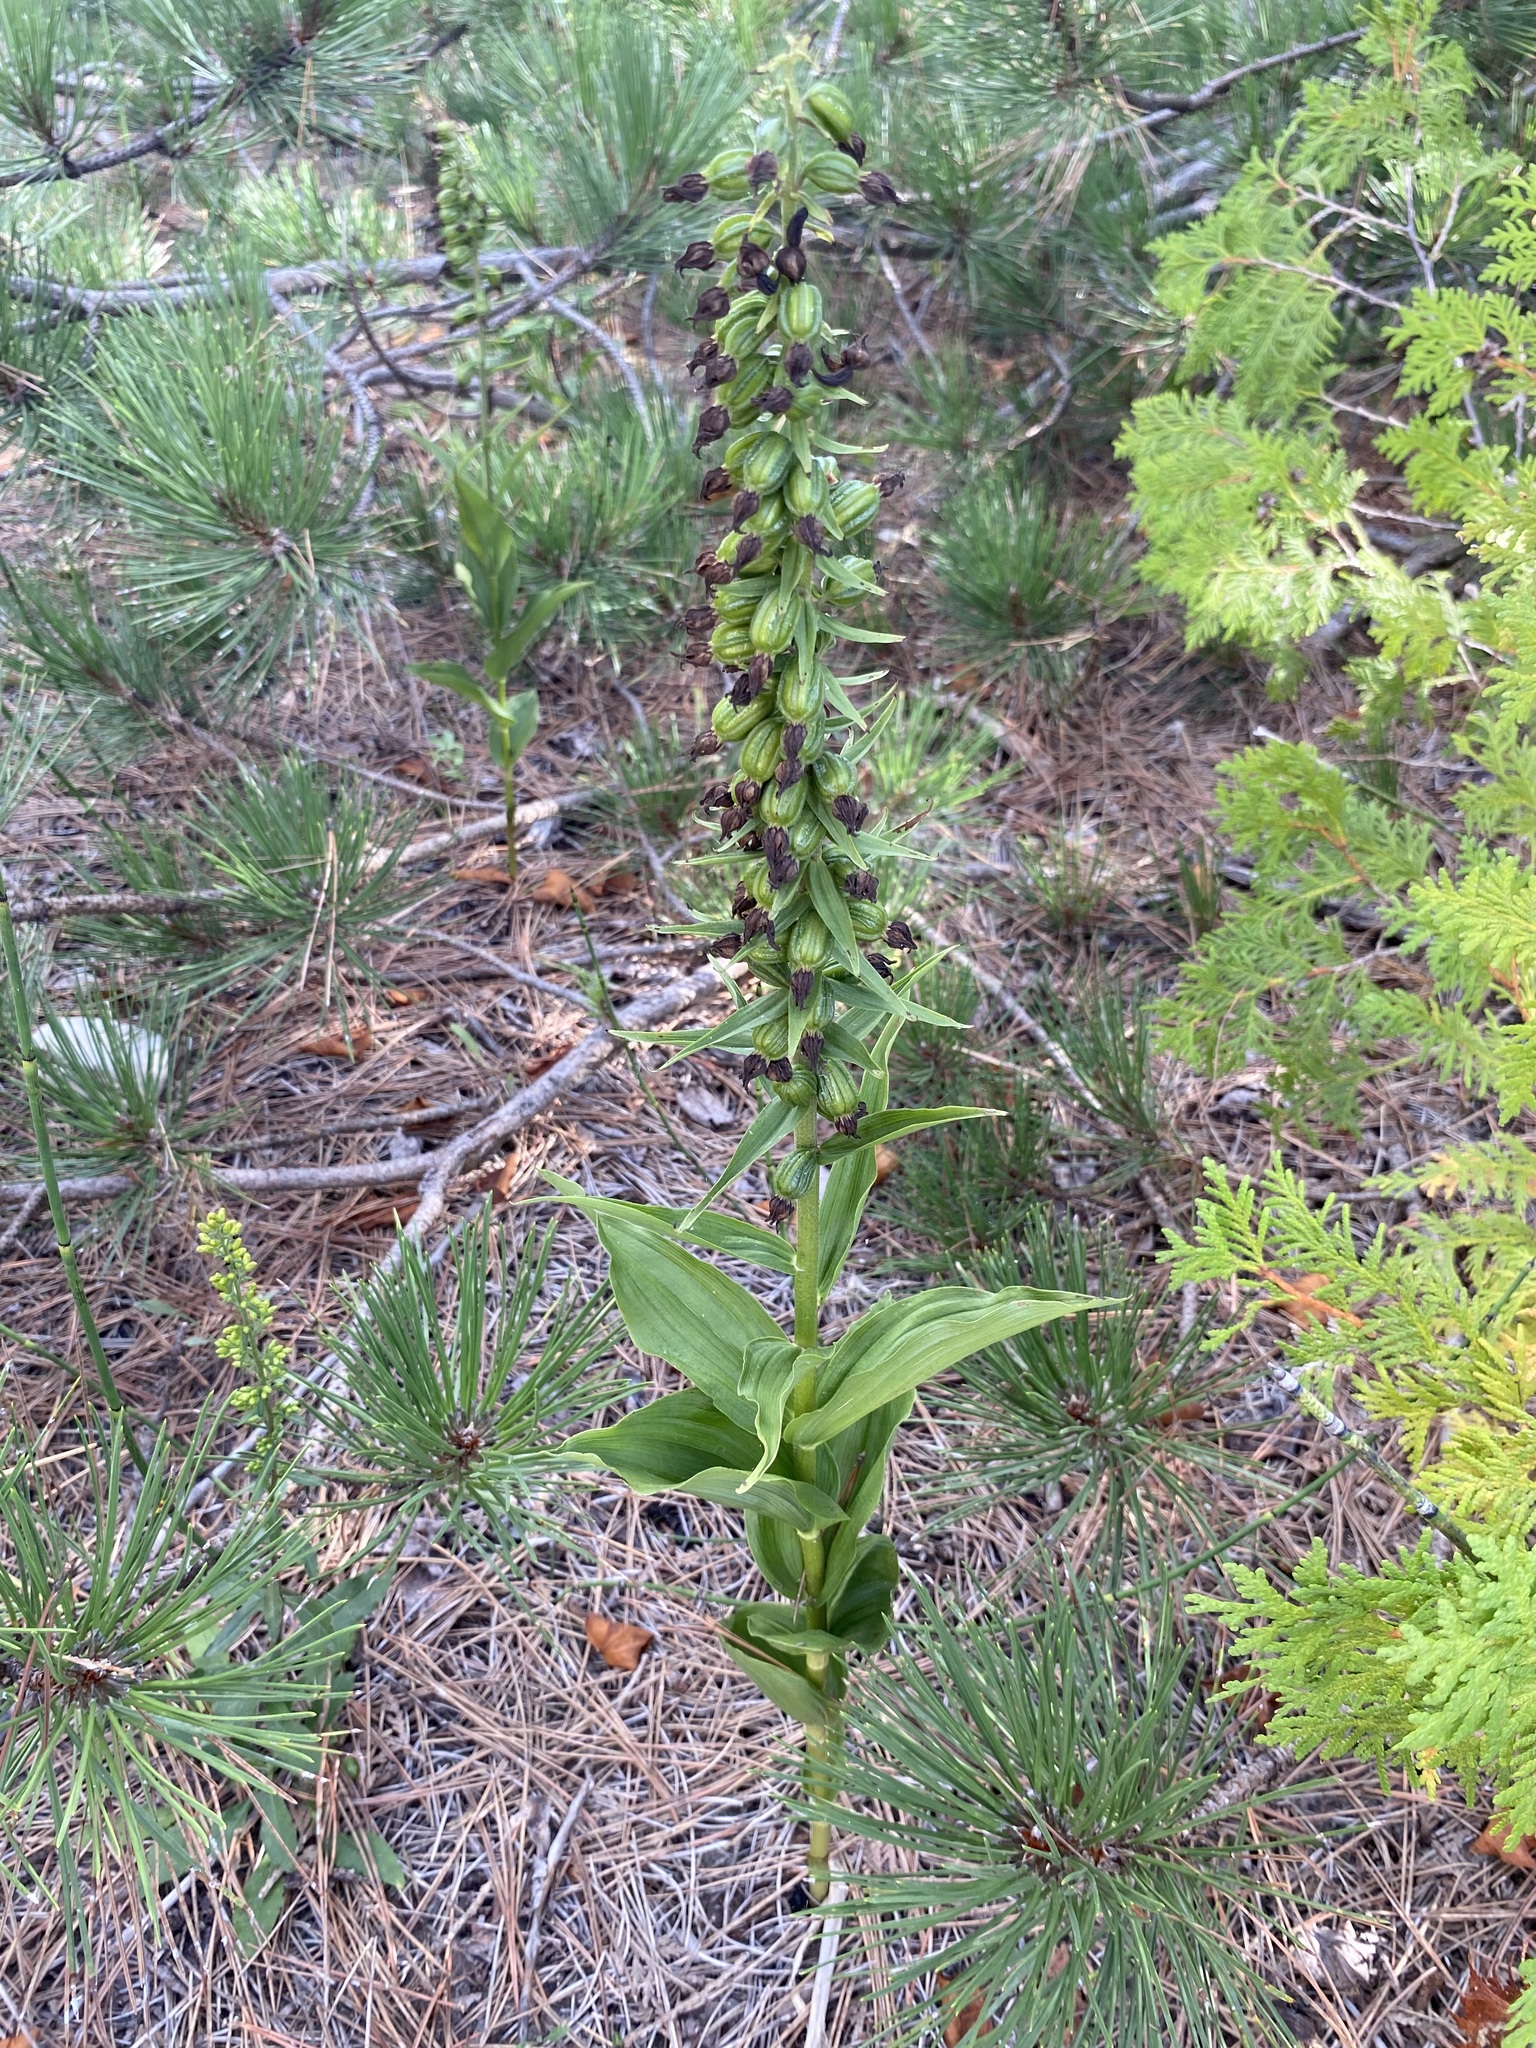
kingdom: Plantae
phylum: Tracheophyta
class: Liliopsida
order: Asparagales
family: Orchidaceae
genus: Epipactis
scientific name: Epipactis helleborine
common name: Broad-leaved helleborine
